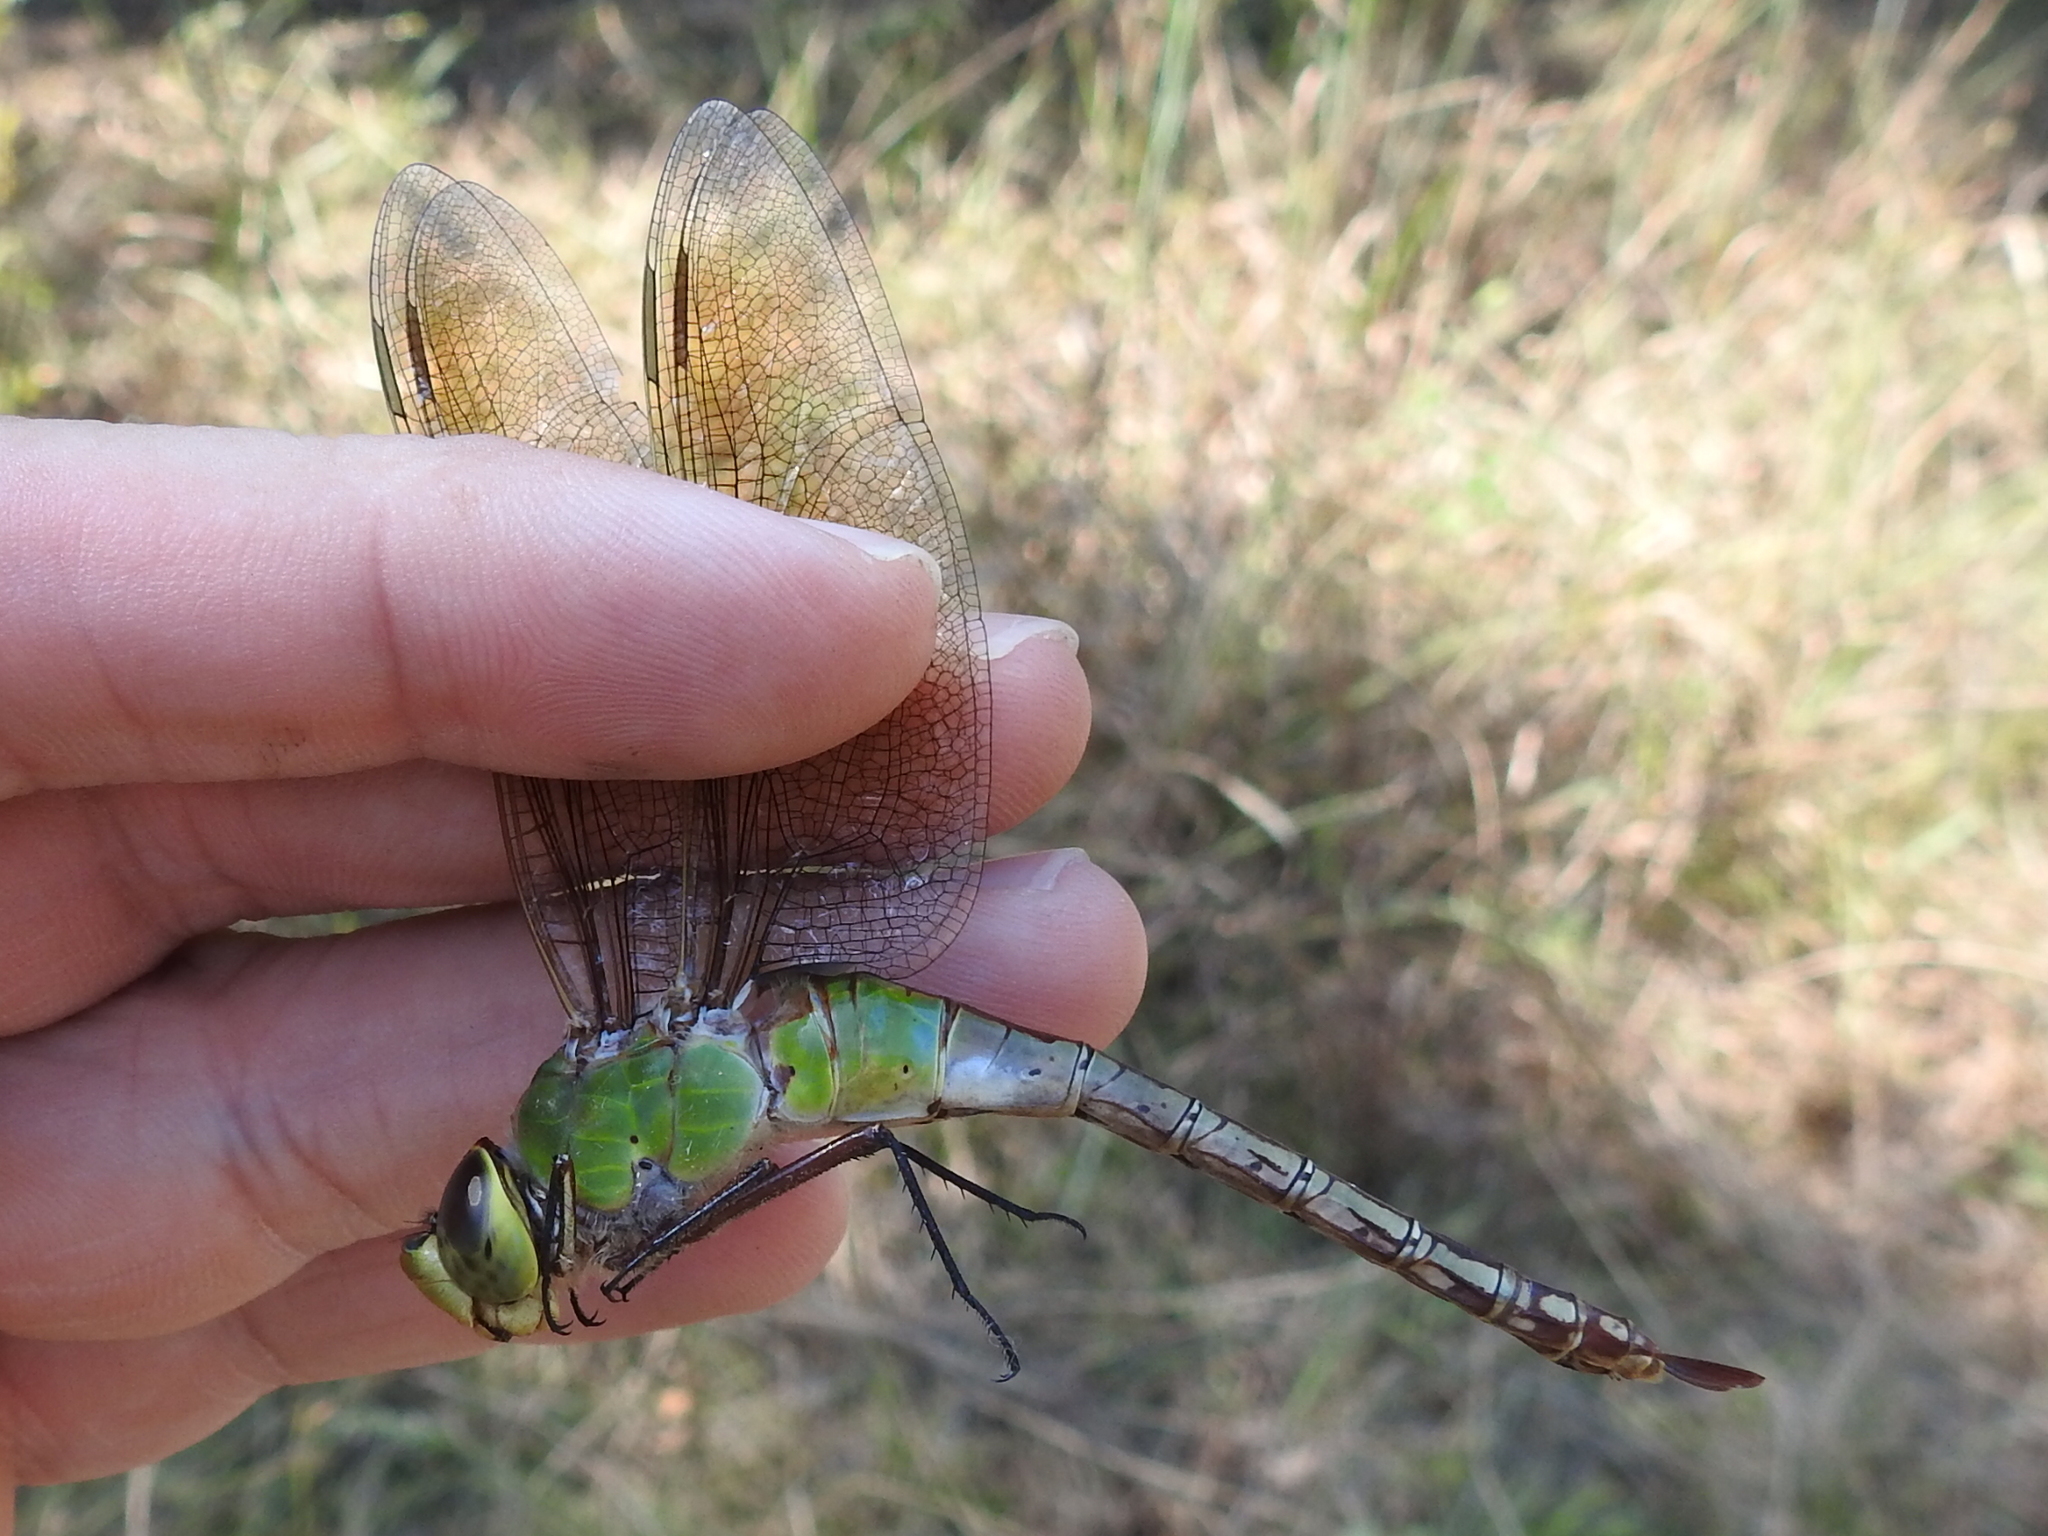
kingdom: Animalia
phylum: Arthropoda
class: Insecta
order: Odonata
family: Aeshnidae
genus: Anax
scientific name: Anax junius
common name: Common green darner
